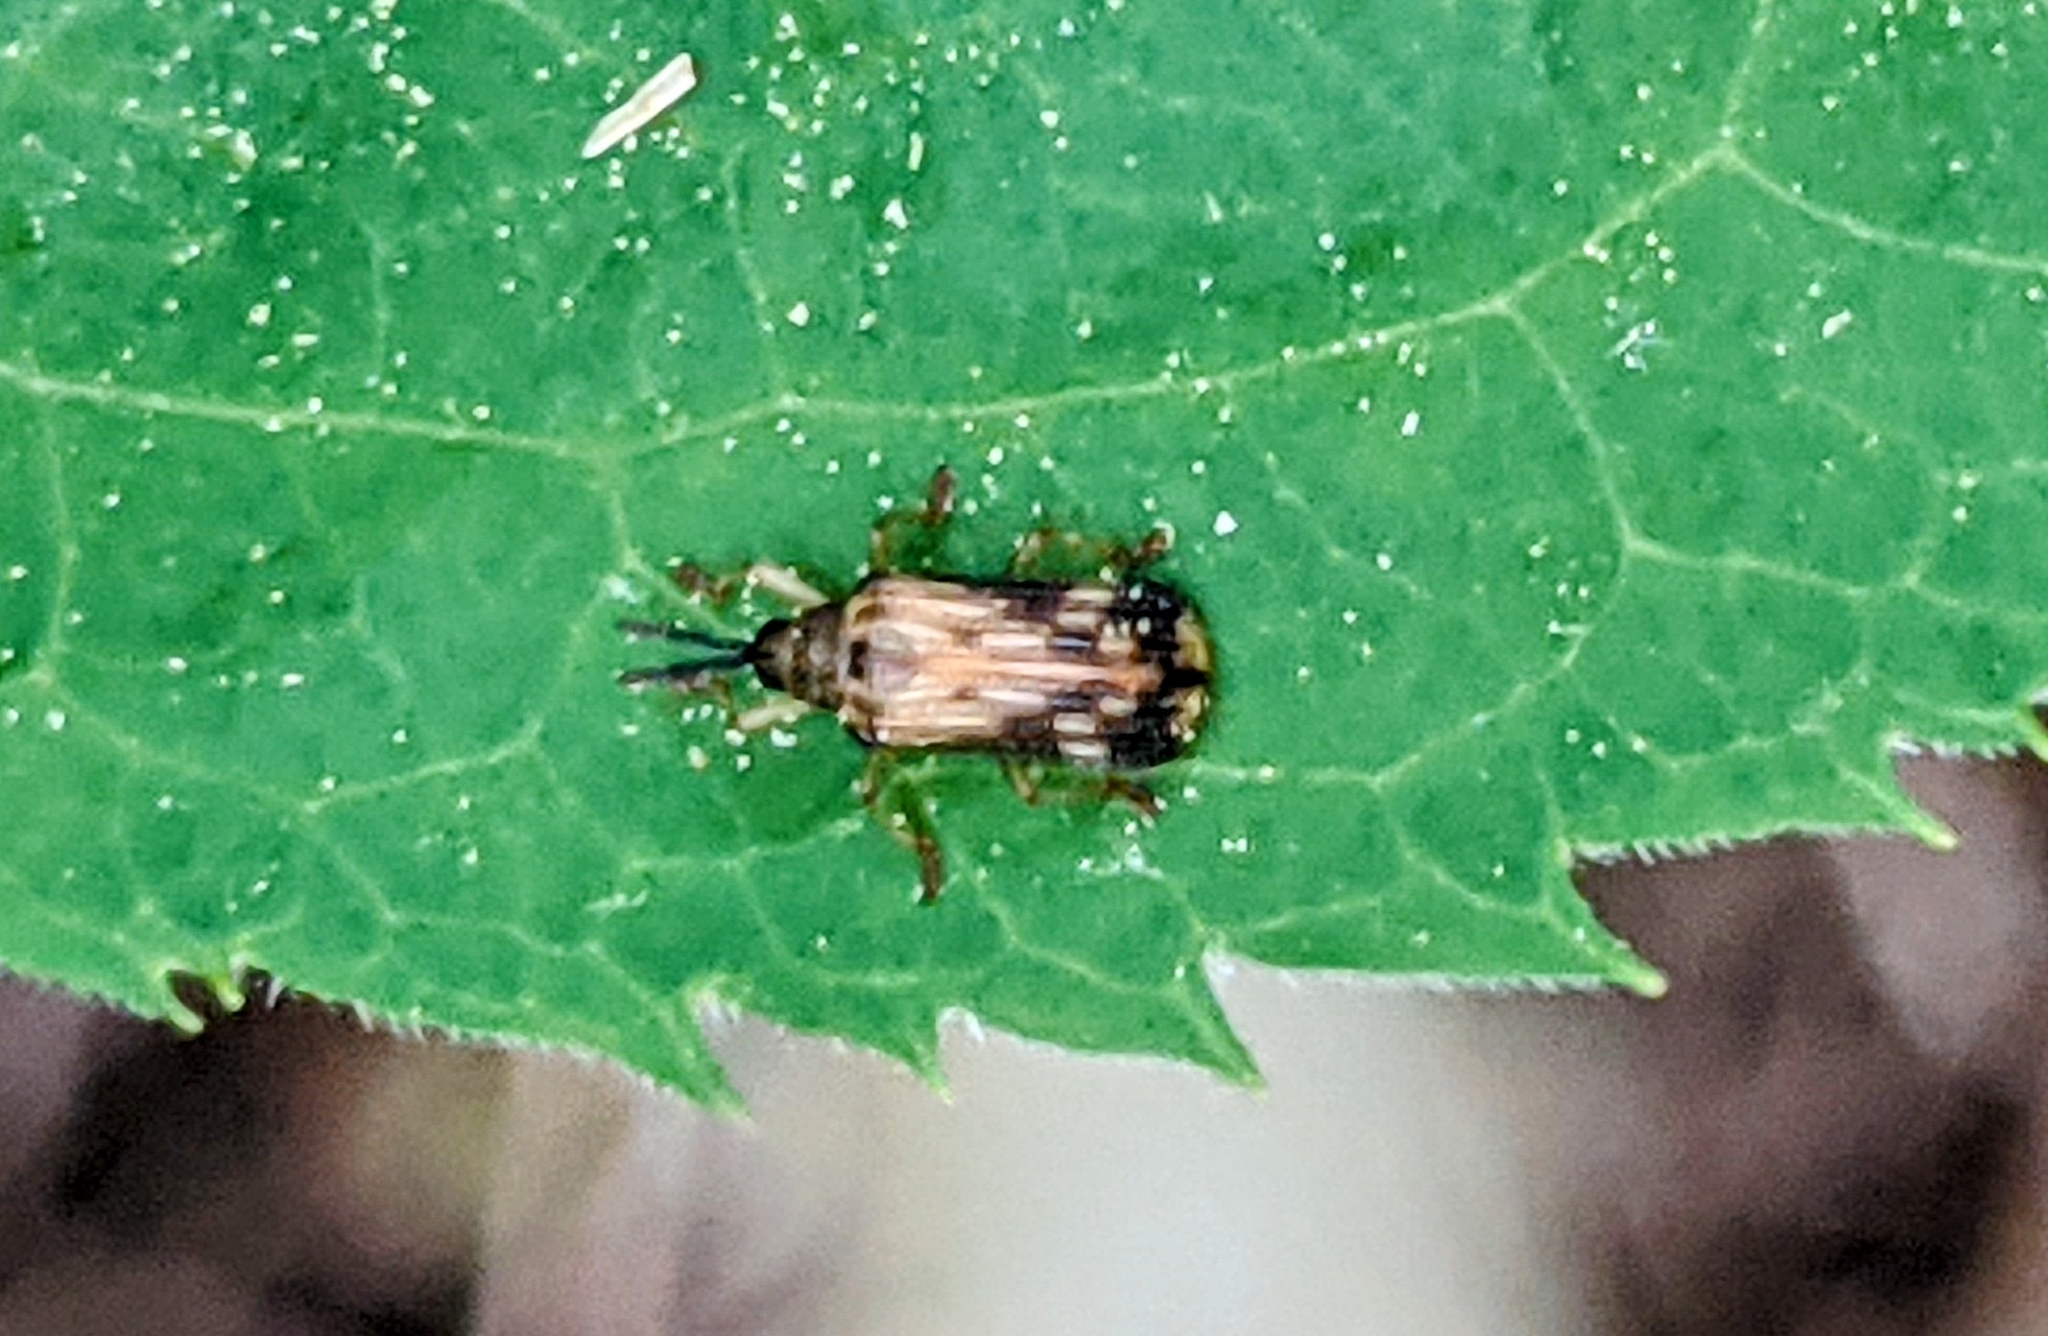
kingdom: Animalia
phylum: Arthropoda
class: Insecta
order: Coleoptera
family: Chrysomelidae
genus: Sumitrosis
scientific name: Sumitrosis inaequalis
